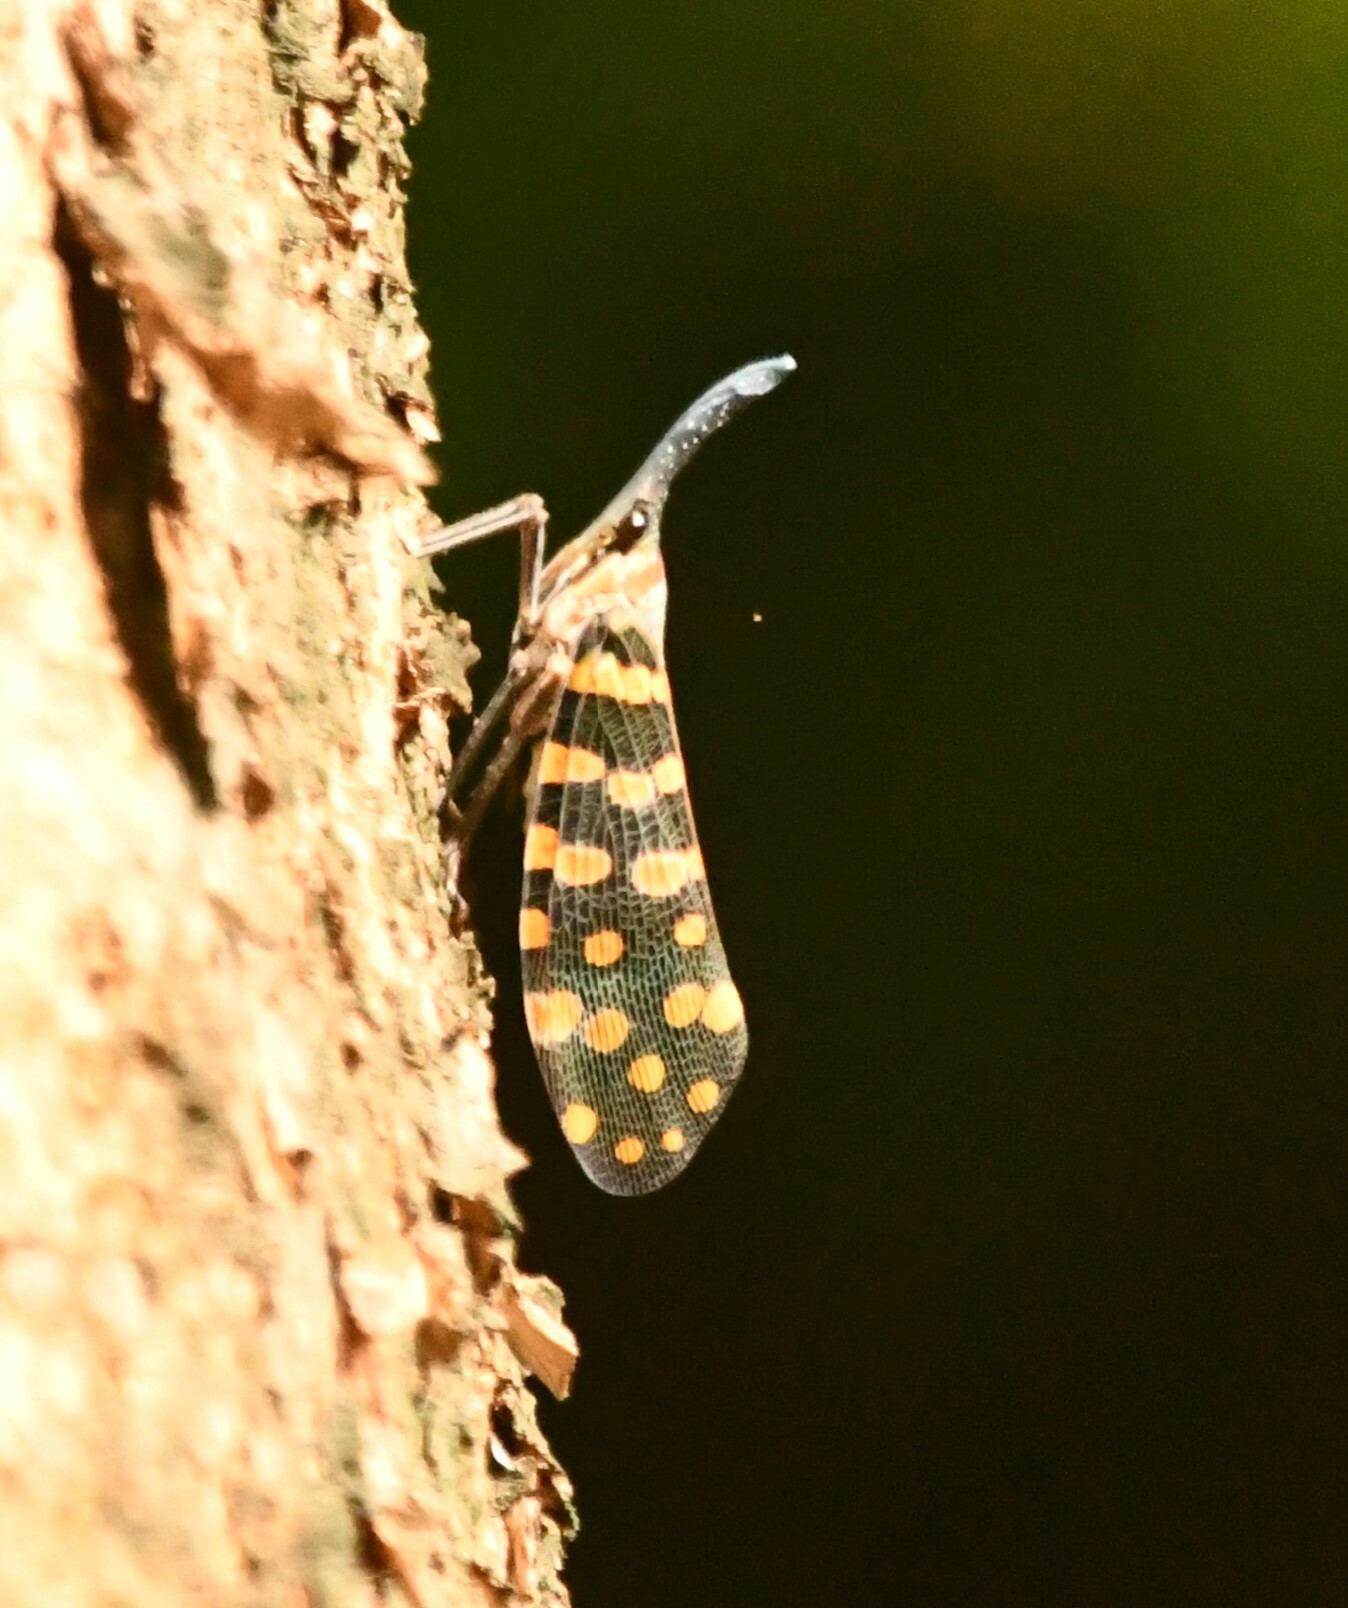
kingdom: Animalia
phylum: Arthropoda
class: Insecta
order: Hemiptera
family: Fulgoridae
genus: Pyrops
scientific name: Pyrops
